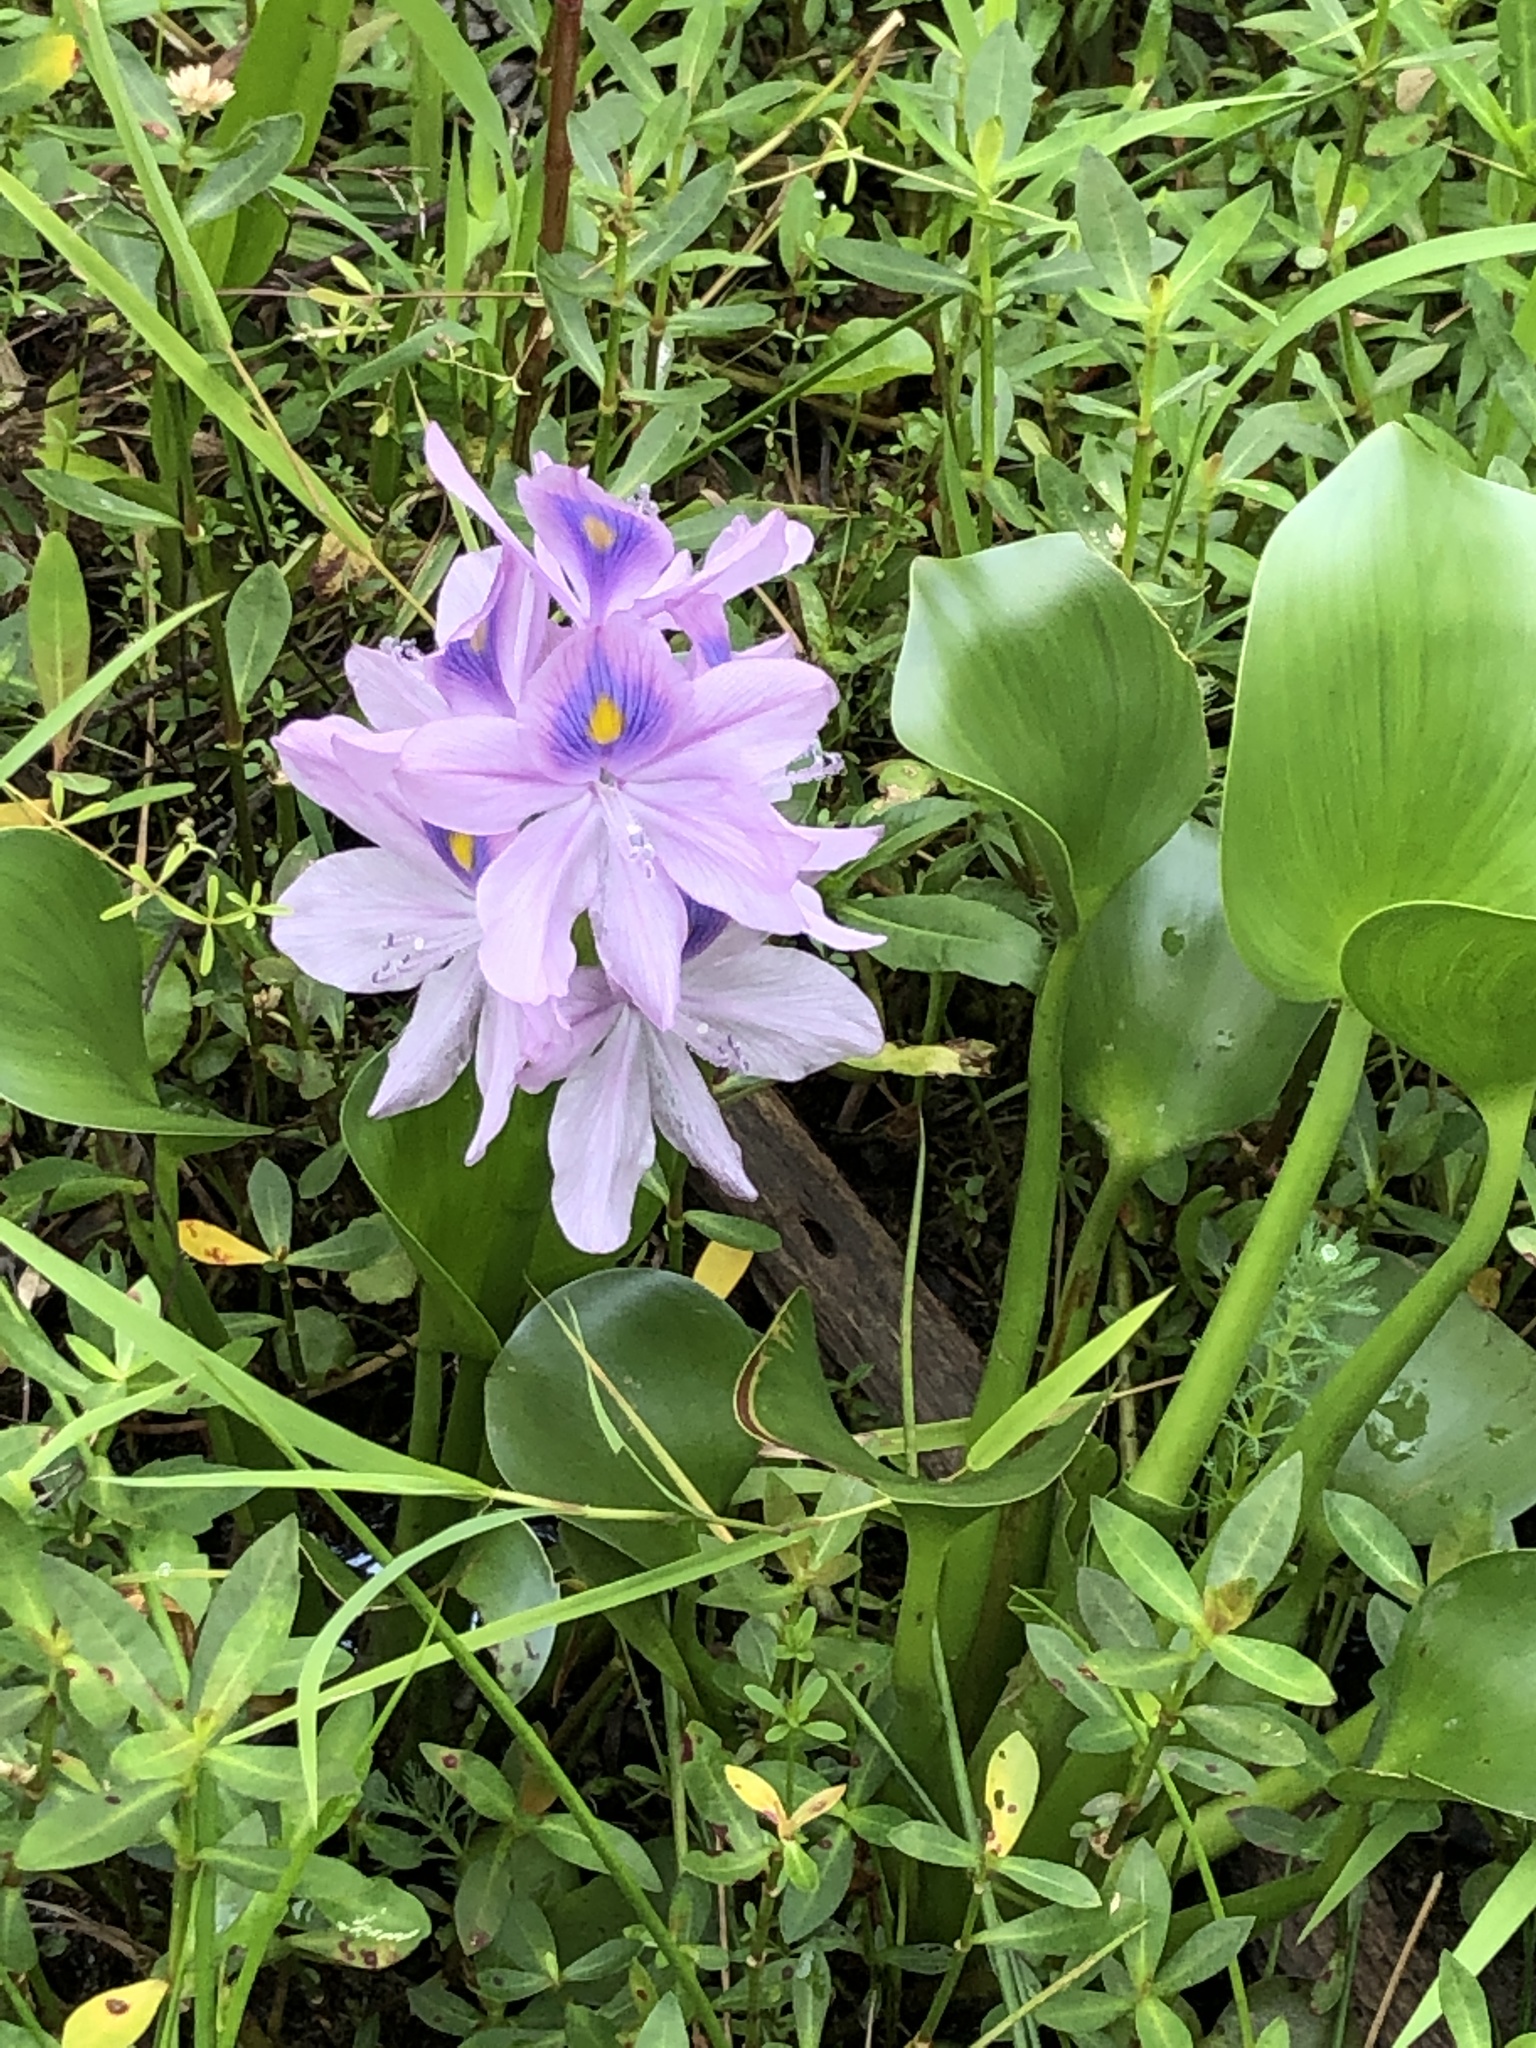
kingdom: Plantae
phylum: Tracheophyta
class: Liliopsida
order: Commelinales
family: Pontederiaceae
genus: Pontederia
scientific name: Pontederia crassipes
